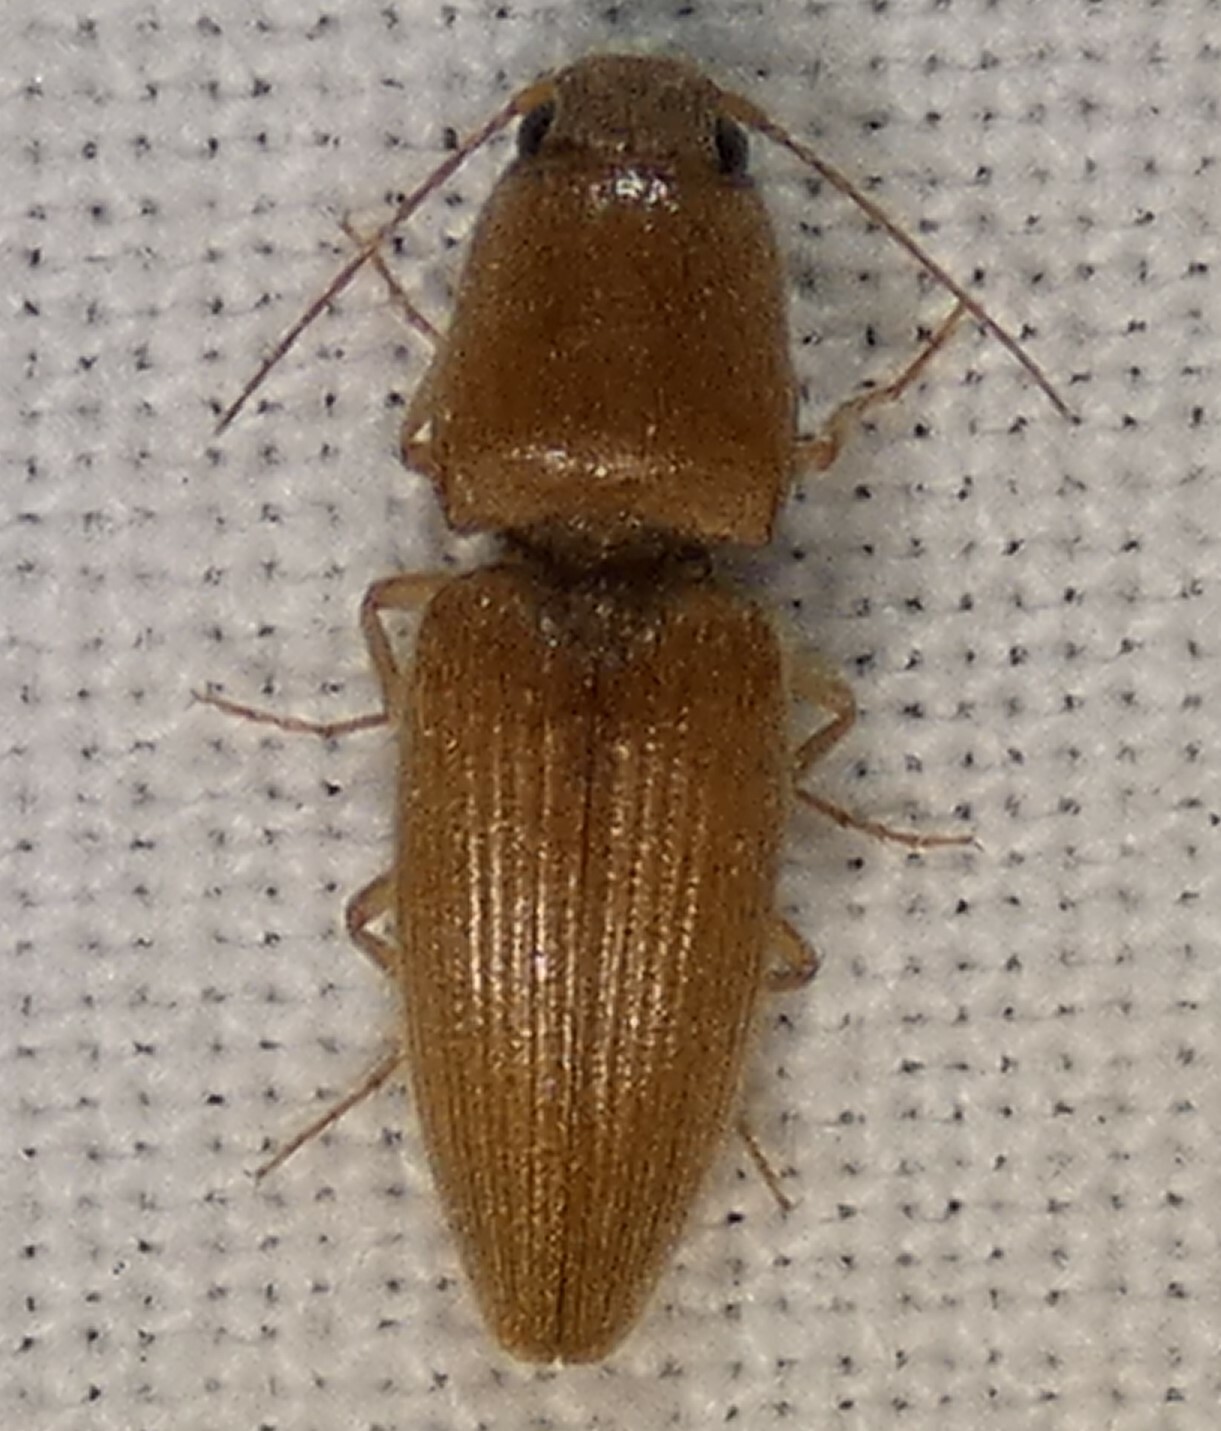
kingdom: Animalia
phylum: Arthropoda
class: Insecta
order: Coleoptera
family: Elateridae
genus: Monocrepidius
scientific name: Monocrepidius scissus
